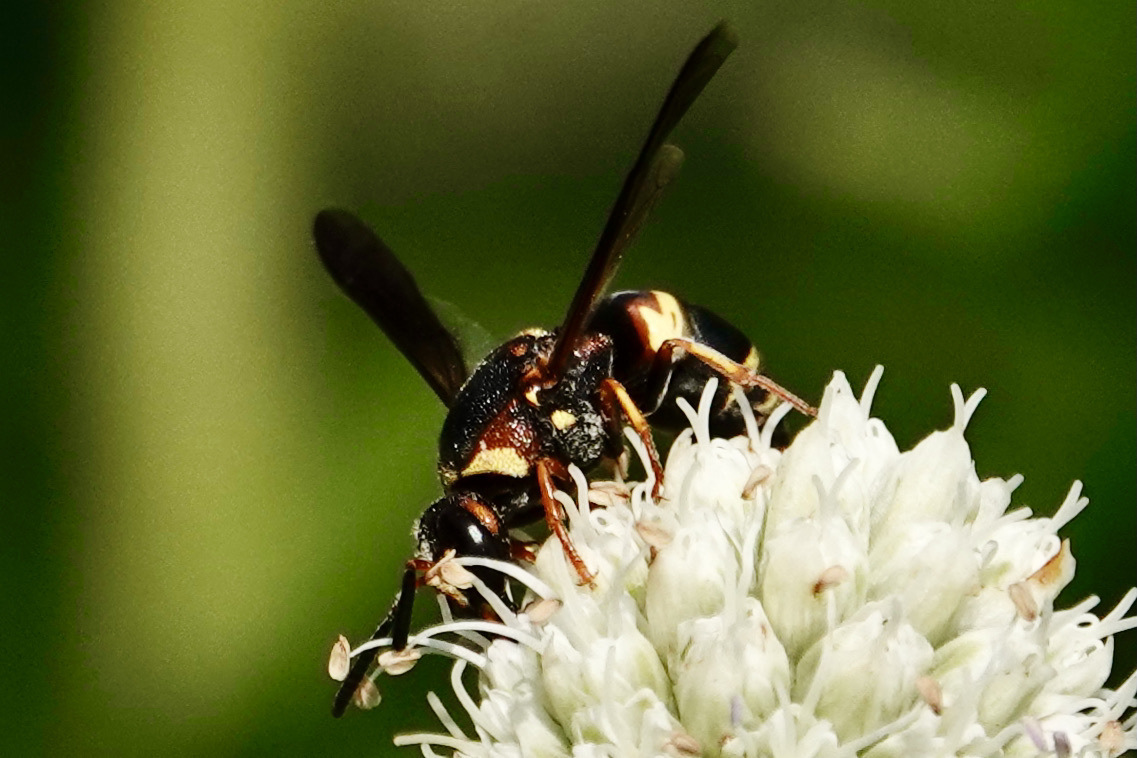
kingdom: Animalia
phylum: Arthropoda
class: Insecta
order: Hymenoptera
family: Eumenidae
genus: Euodynerus
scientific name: Euodynerus hidalgo
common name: Wasp
